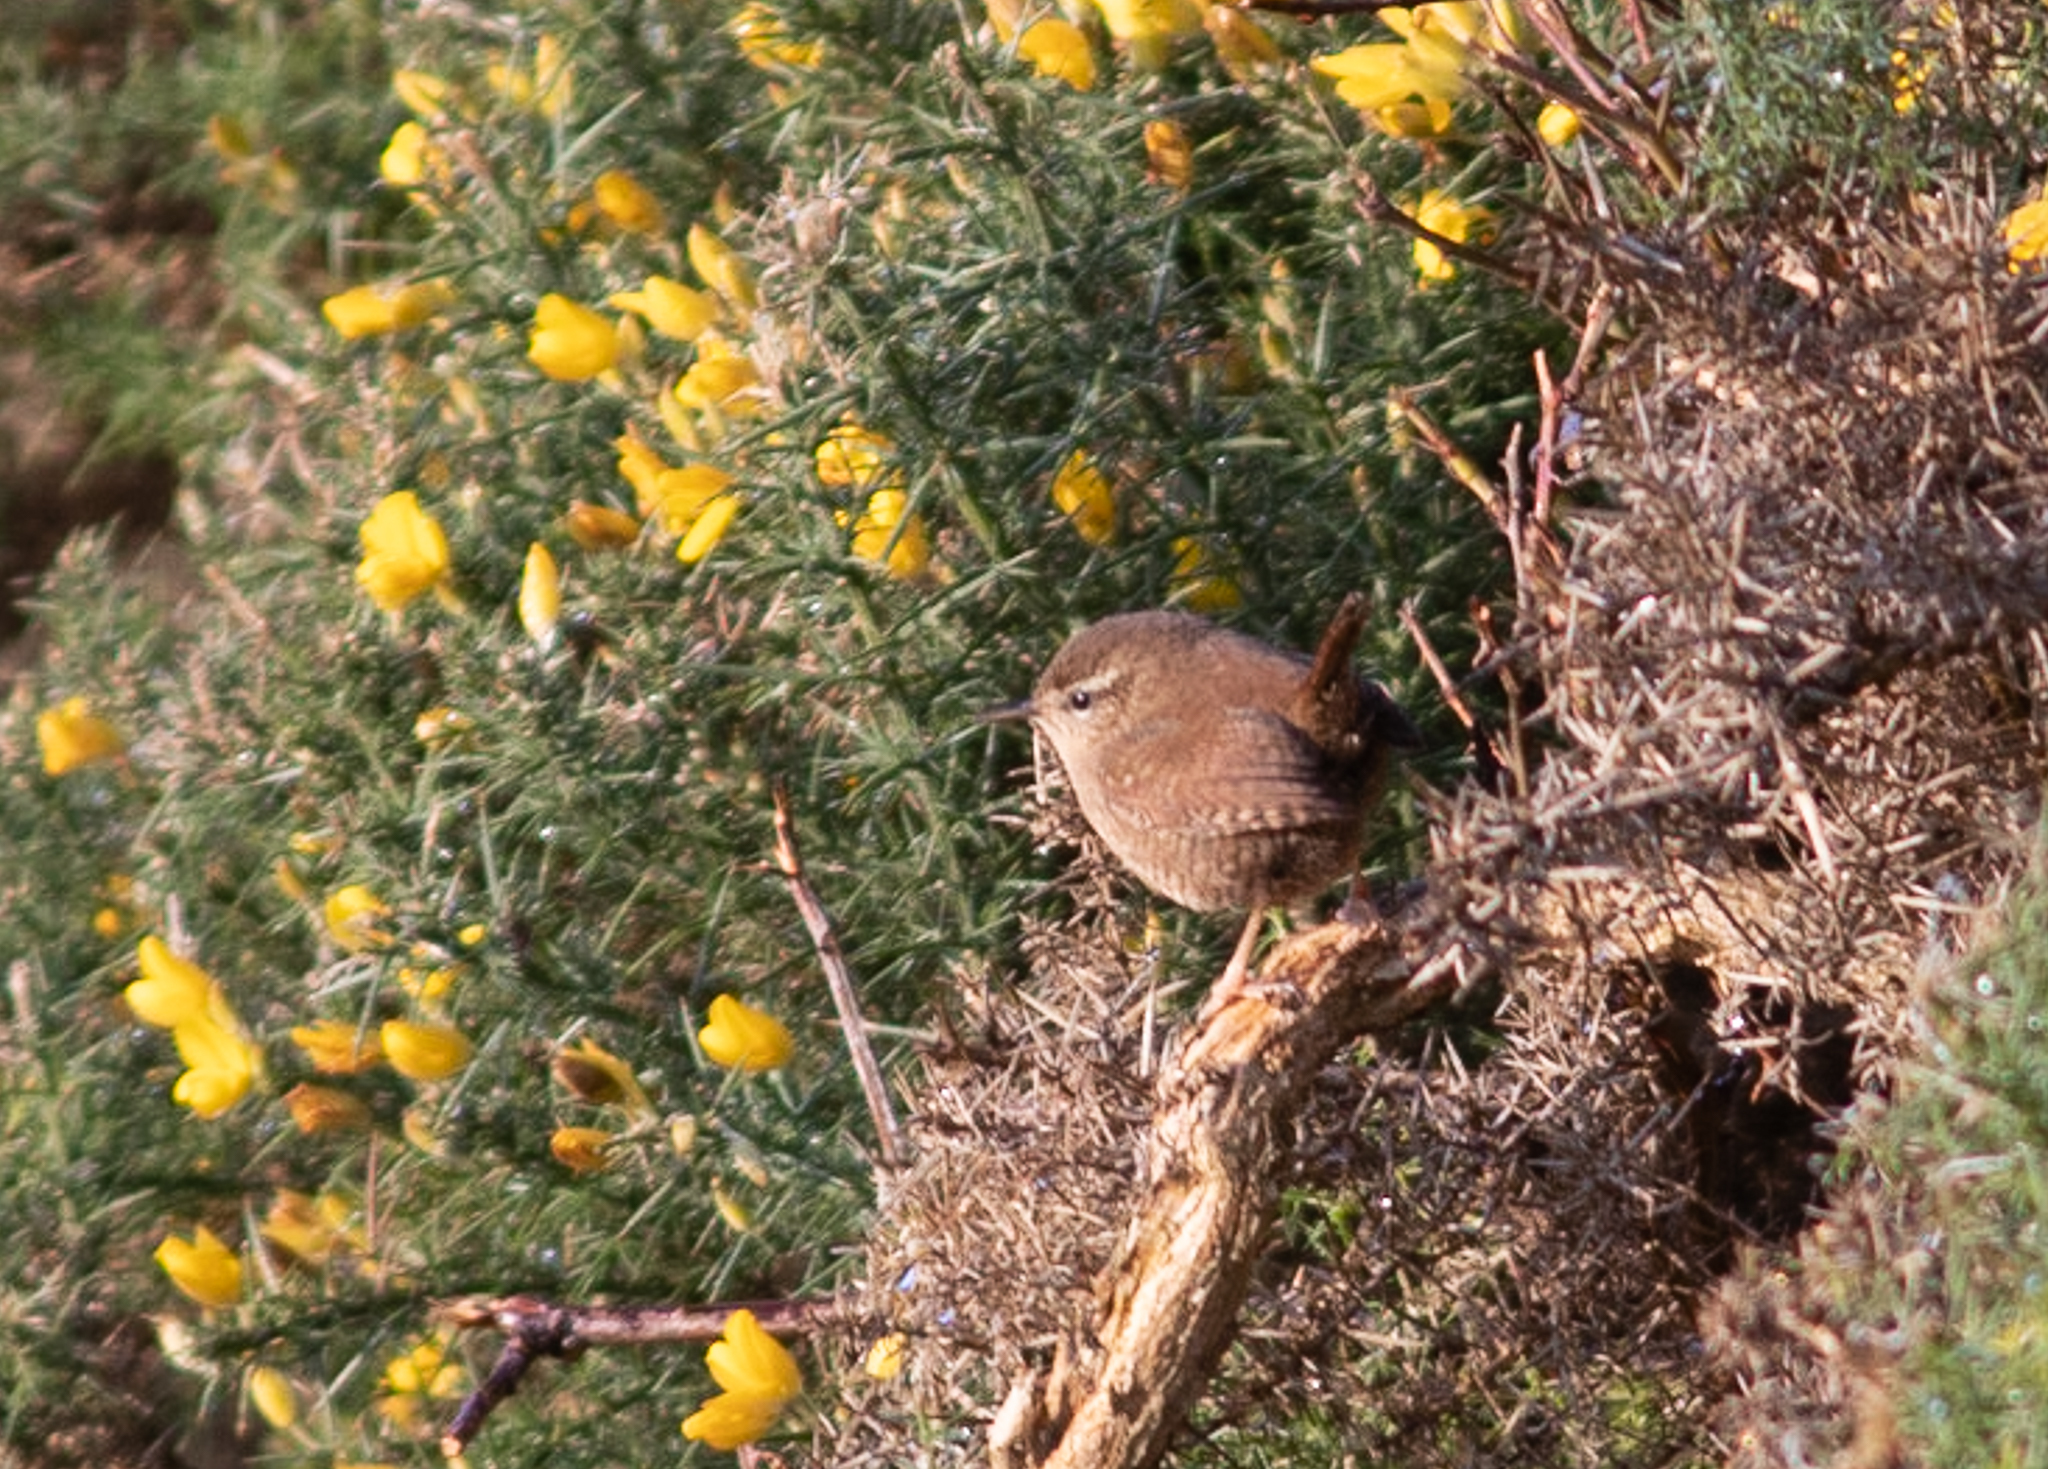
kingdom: Animalia
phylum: Chordata
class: Aves
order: Passeriformes
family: Troglodytidae
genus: Troglodytes
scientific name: Troglodytes troglodytes
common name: Eurasian wren
